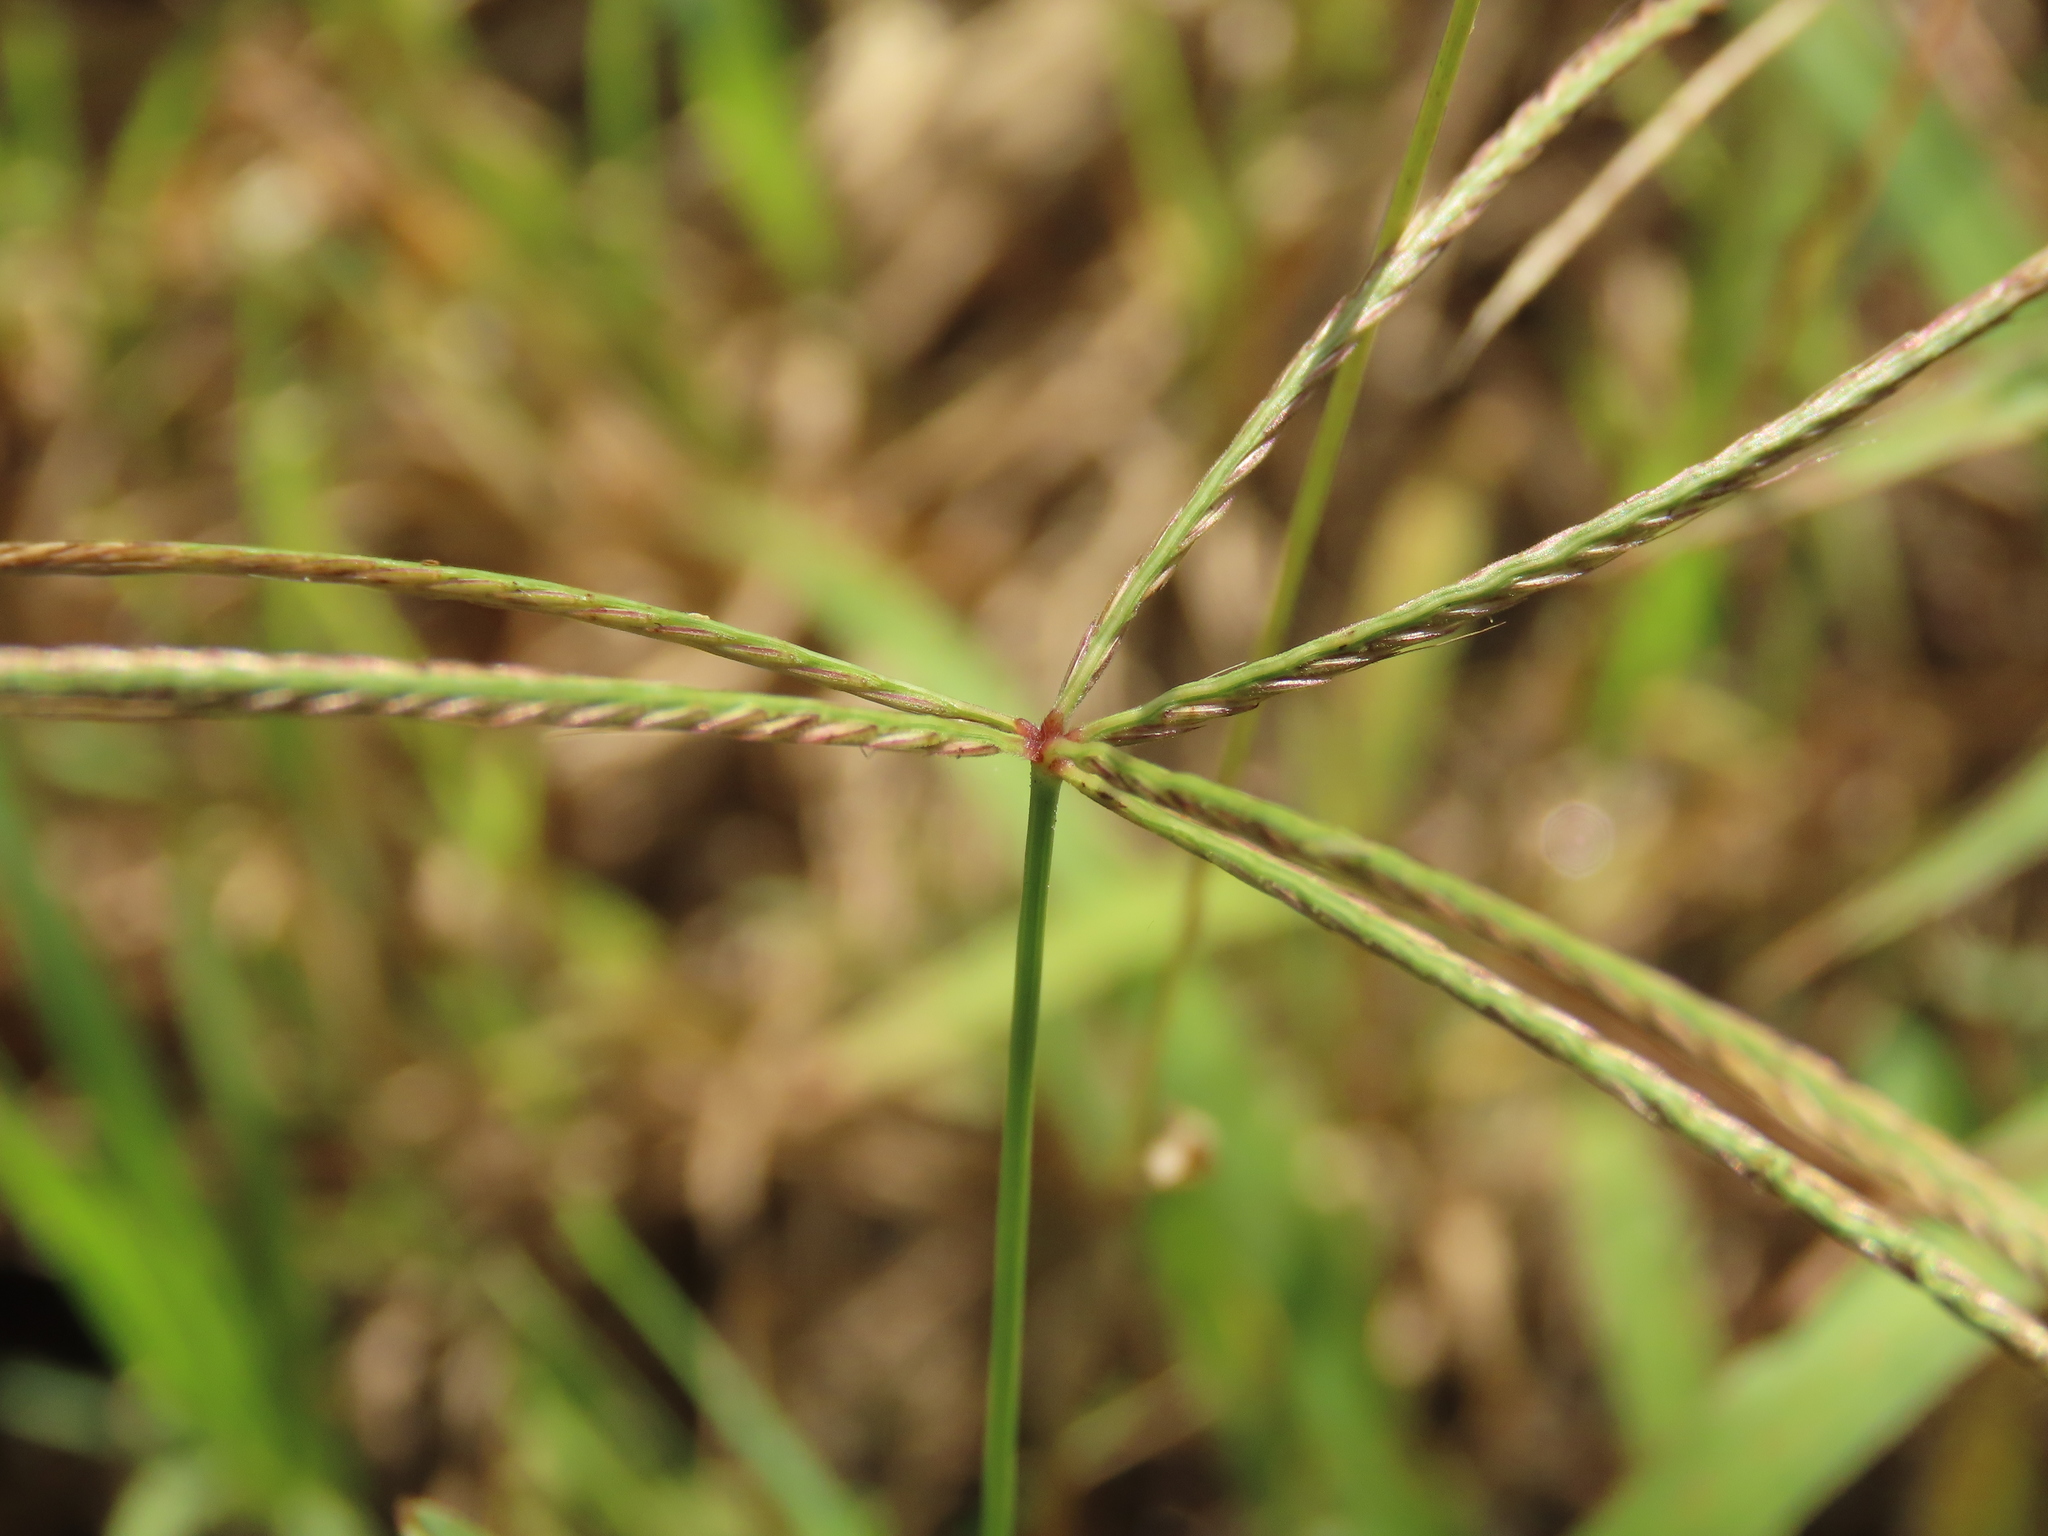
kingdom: Plantae
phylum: Tracheophyta
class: Liliopsida
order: Poales
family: Poaceae
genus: Chloris
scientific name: Chloris divaricata
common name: Spreading windmill grass
